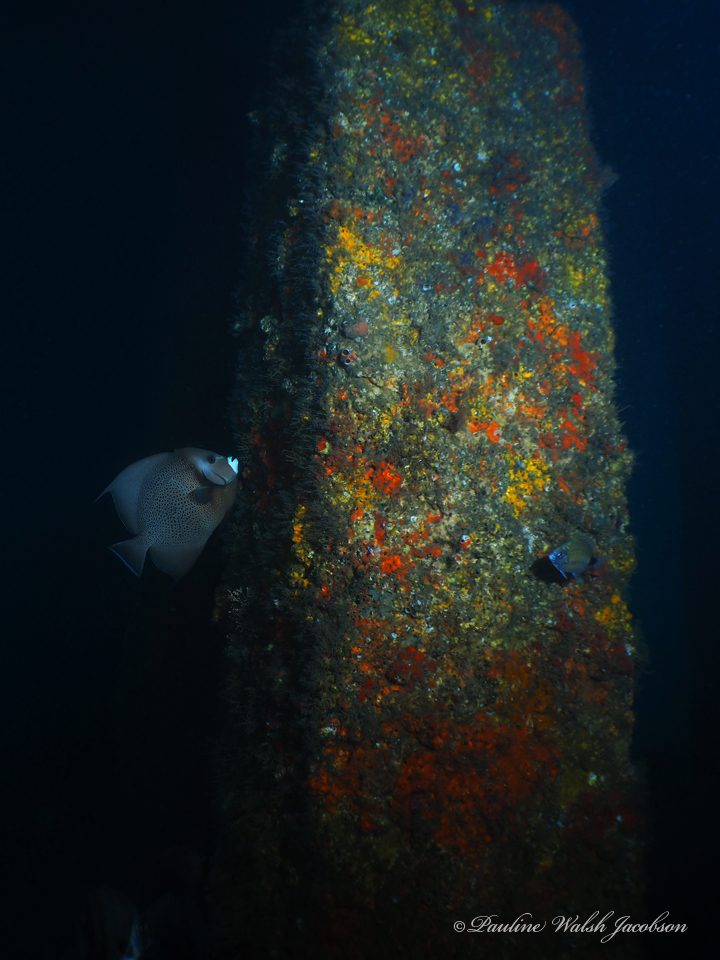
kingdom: Animalia
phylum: Chordata
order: Perciformes
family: Pomacanthidae
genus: Pomacanthus
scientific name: Pomacanthus arcuatus
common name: Gray angelfish
